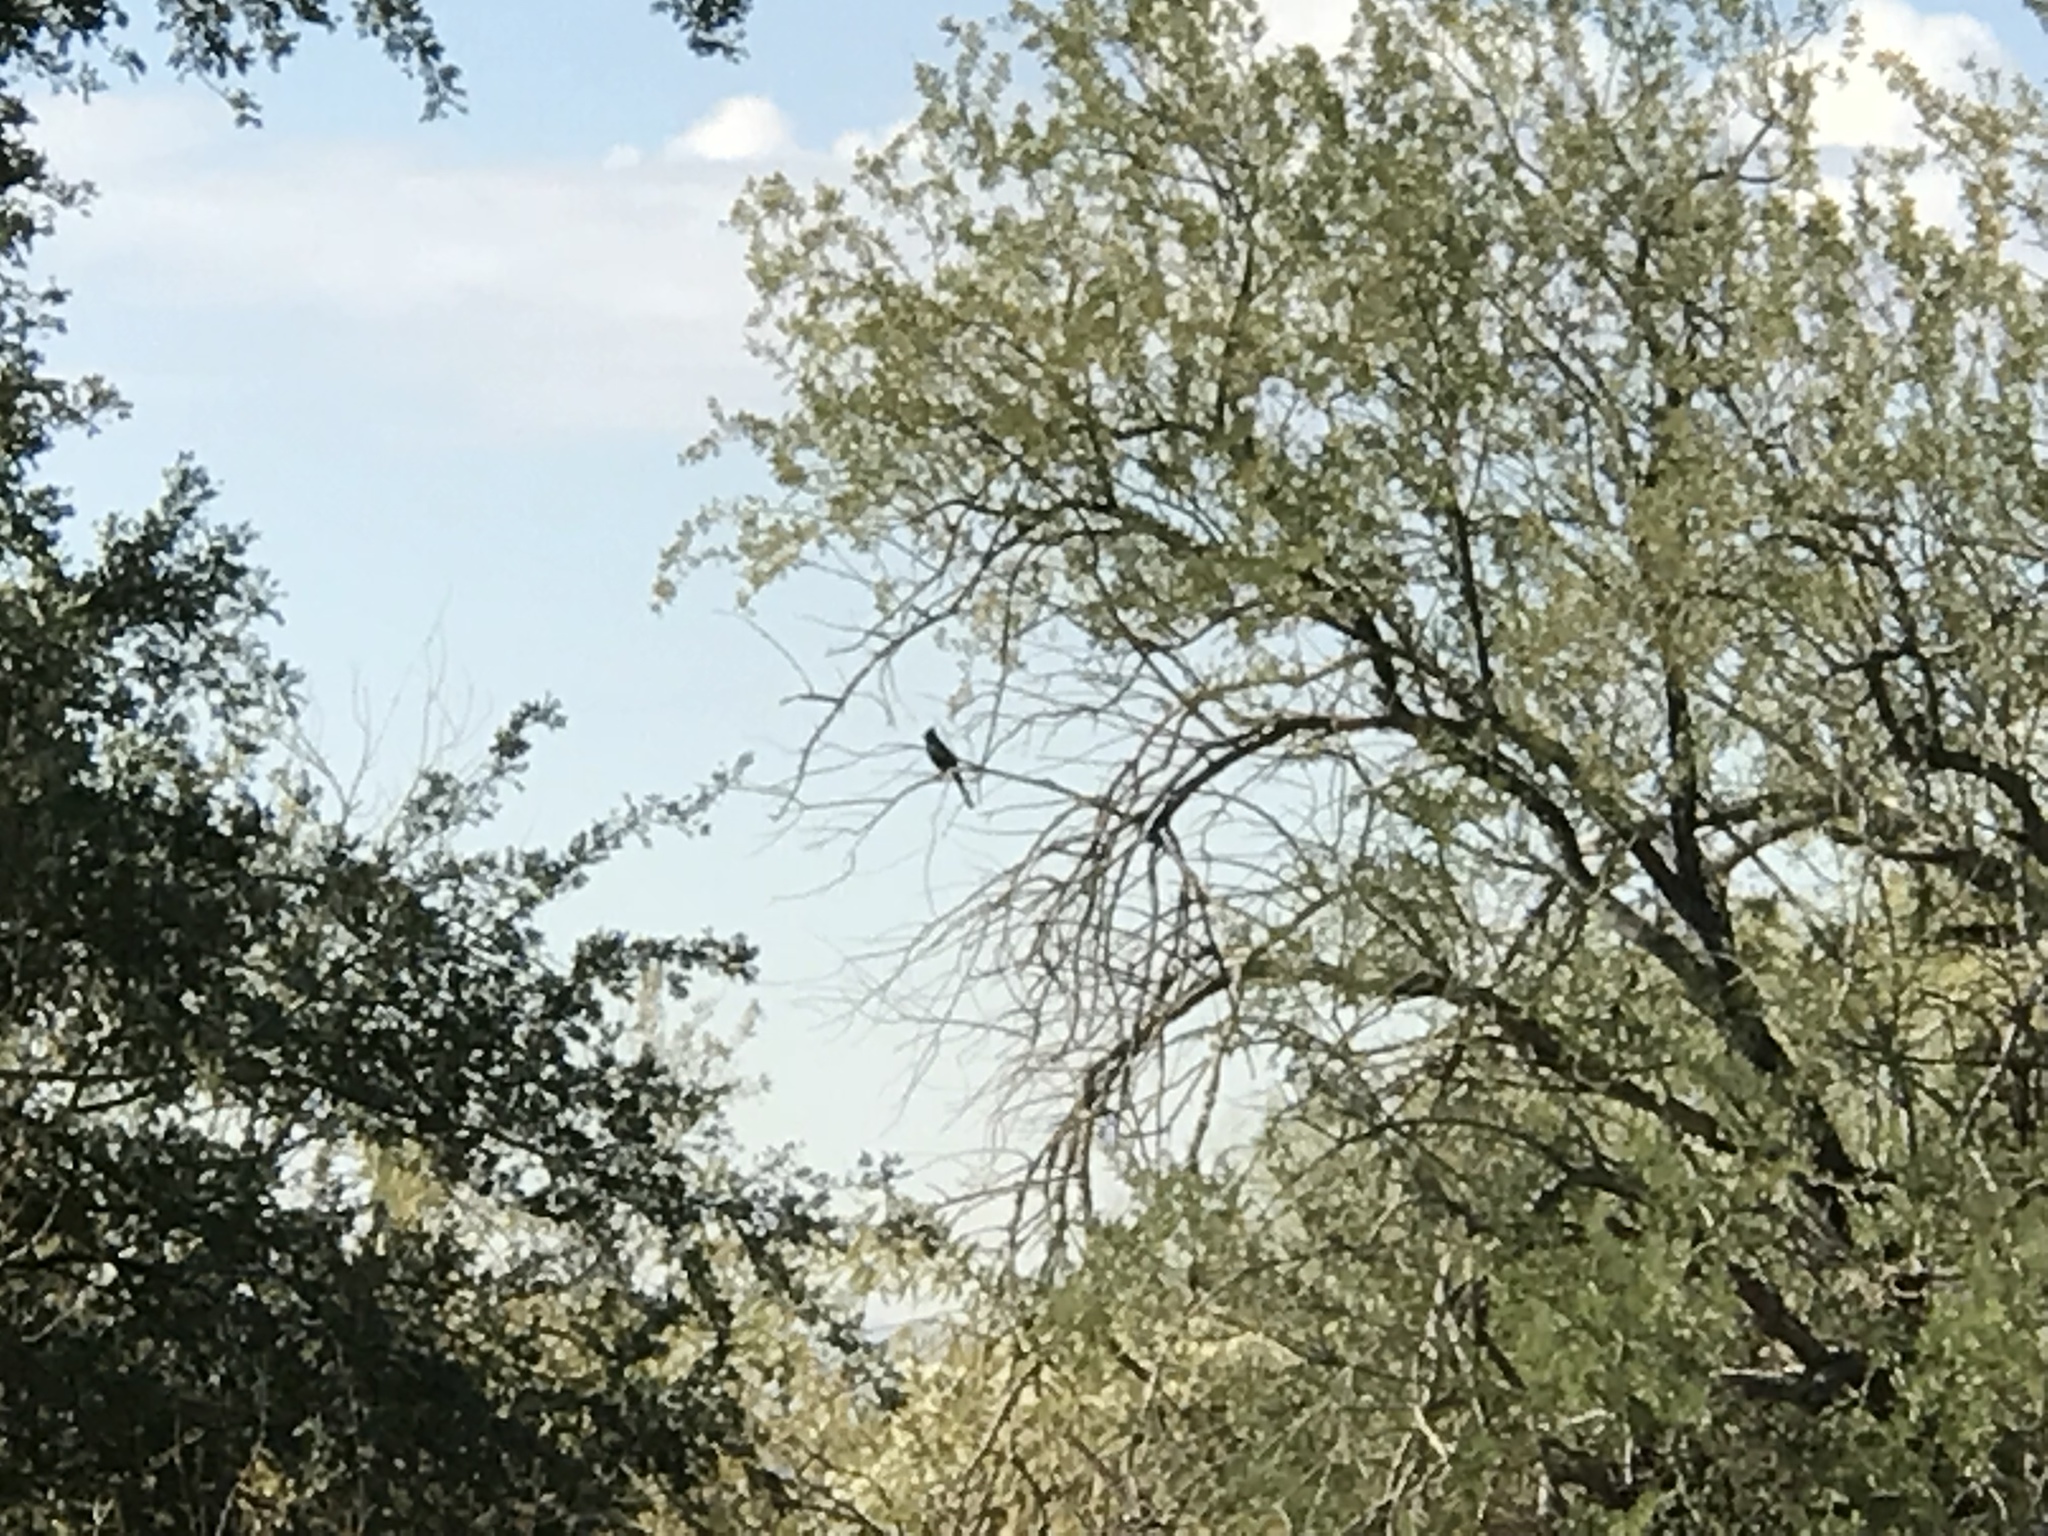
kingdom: Animalia
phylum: Chordata
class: Aves
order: Passeriformes
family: Ptilogonatidae
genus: Phainopepla
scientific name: Phainopepla nitens
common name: Phainopepla
